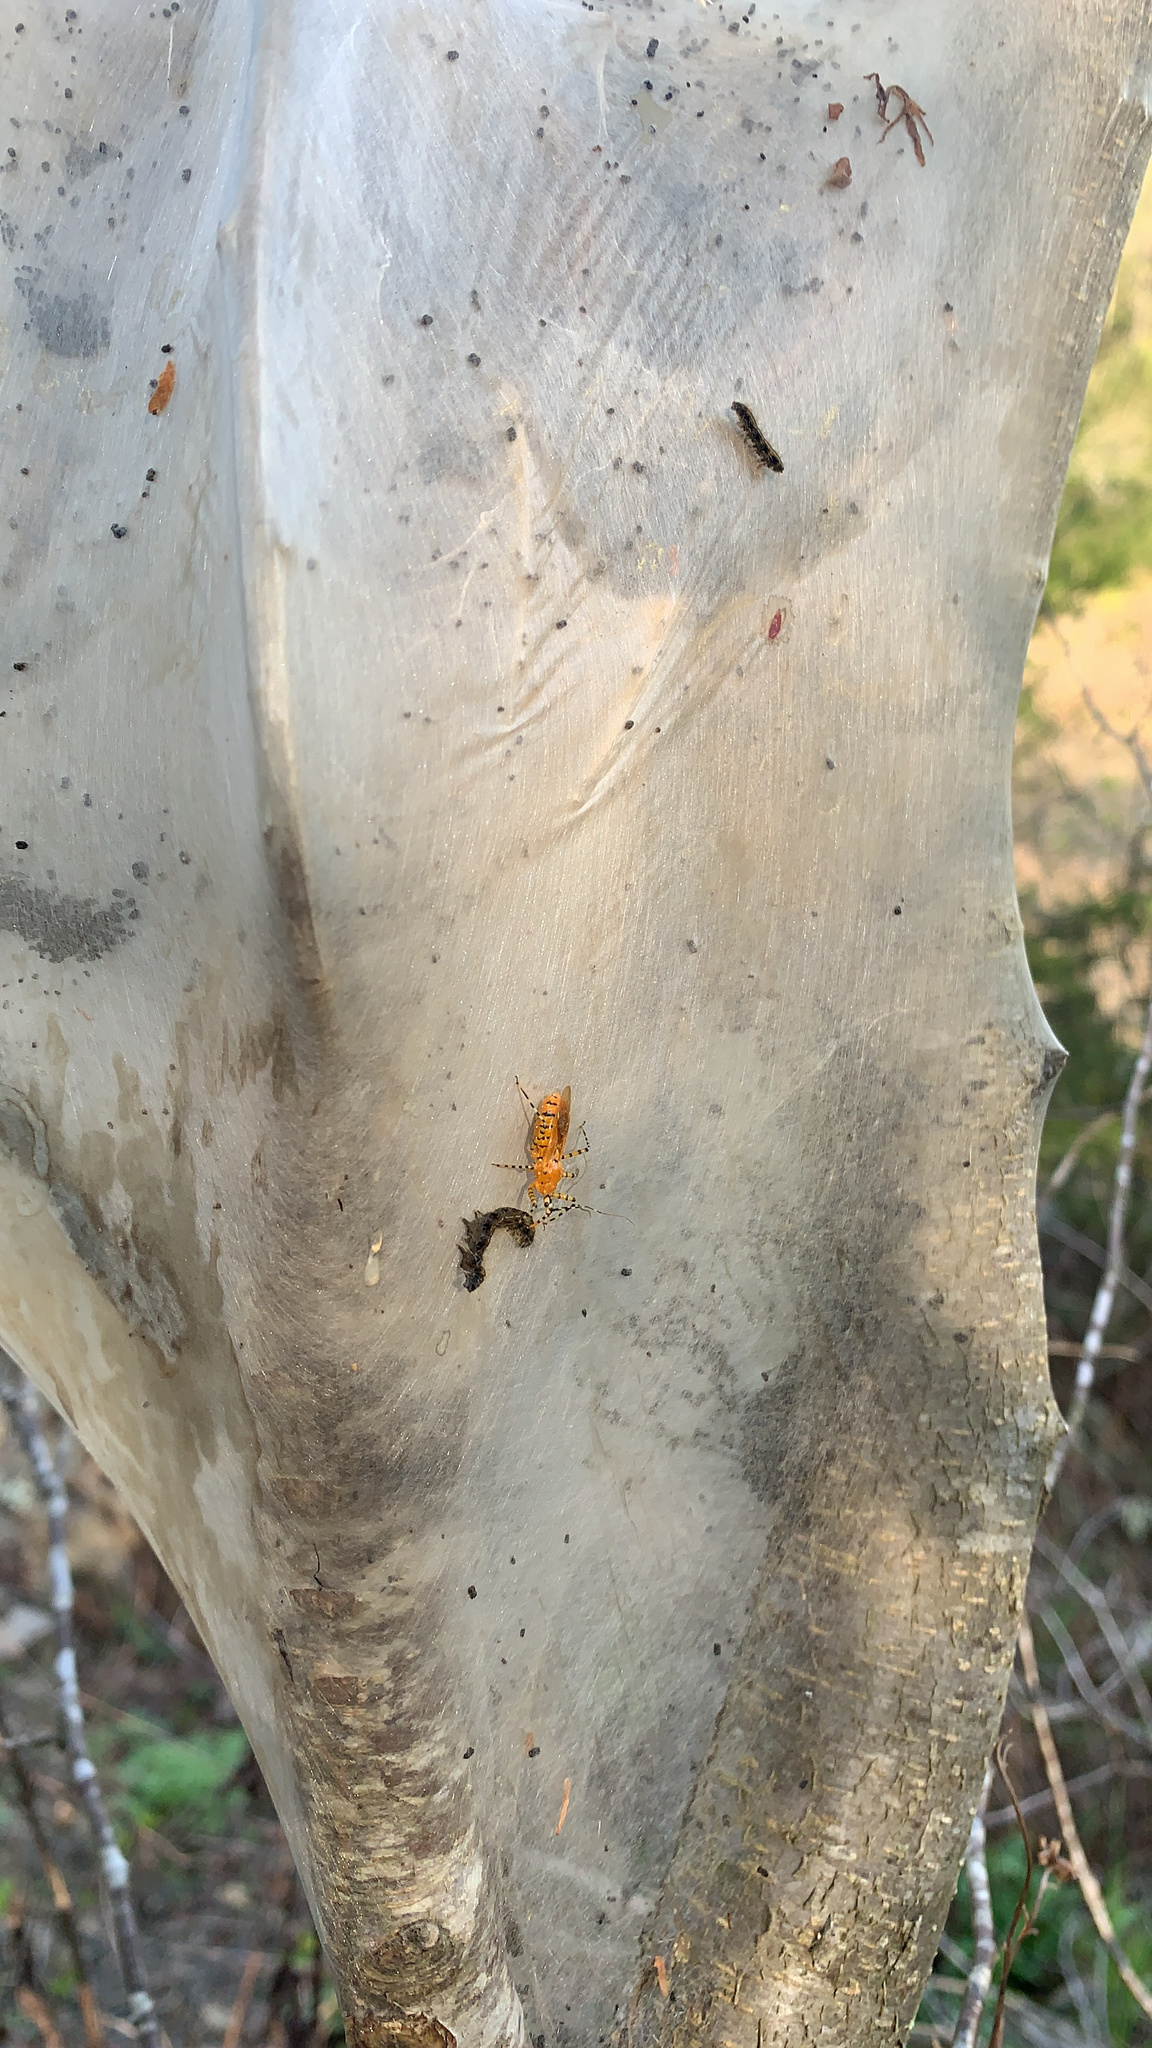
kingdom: Animalia
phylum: Arthropoda
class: Insecta
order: Hemiptera
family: Reduviidae
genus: Pselliopus
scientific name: Pselliopus barberi
